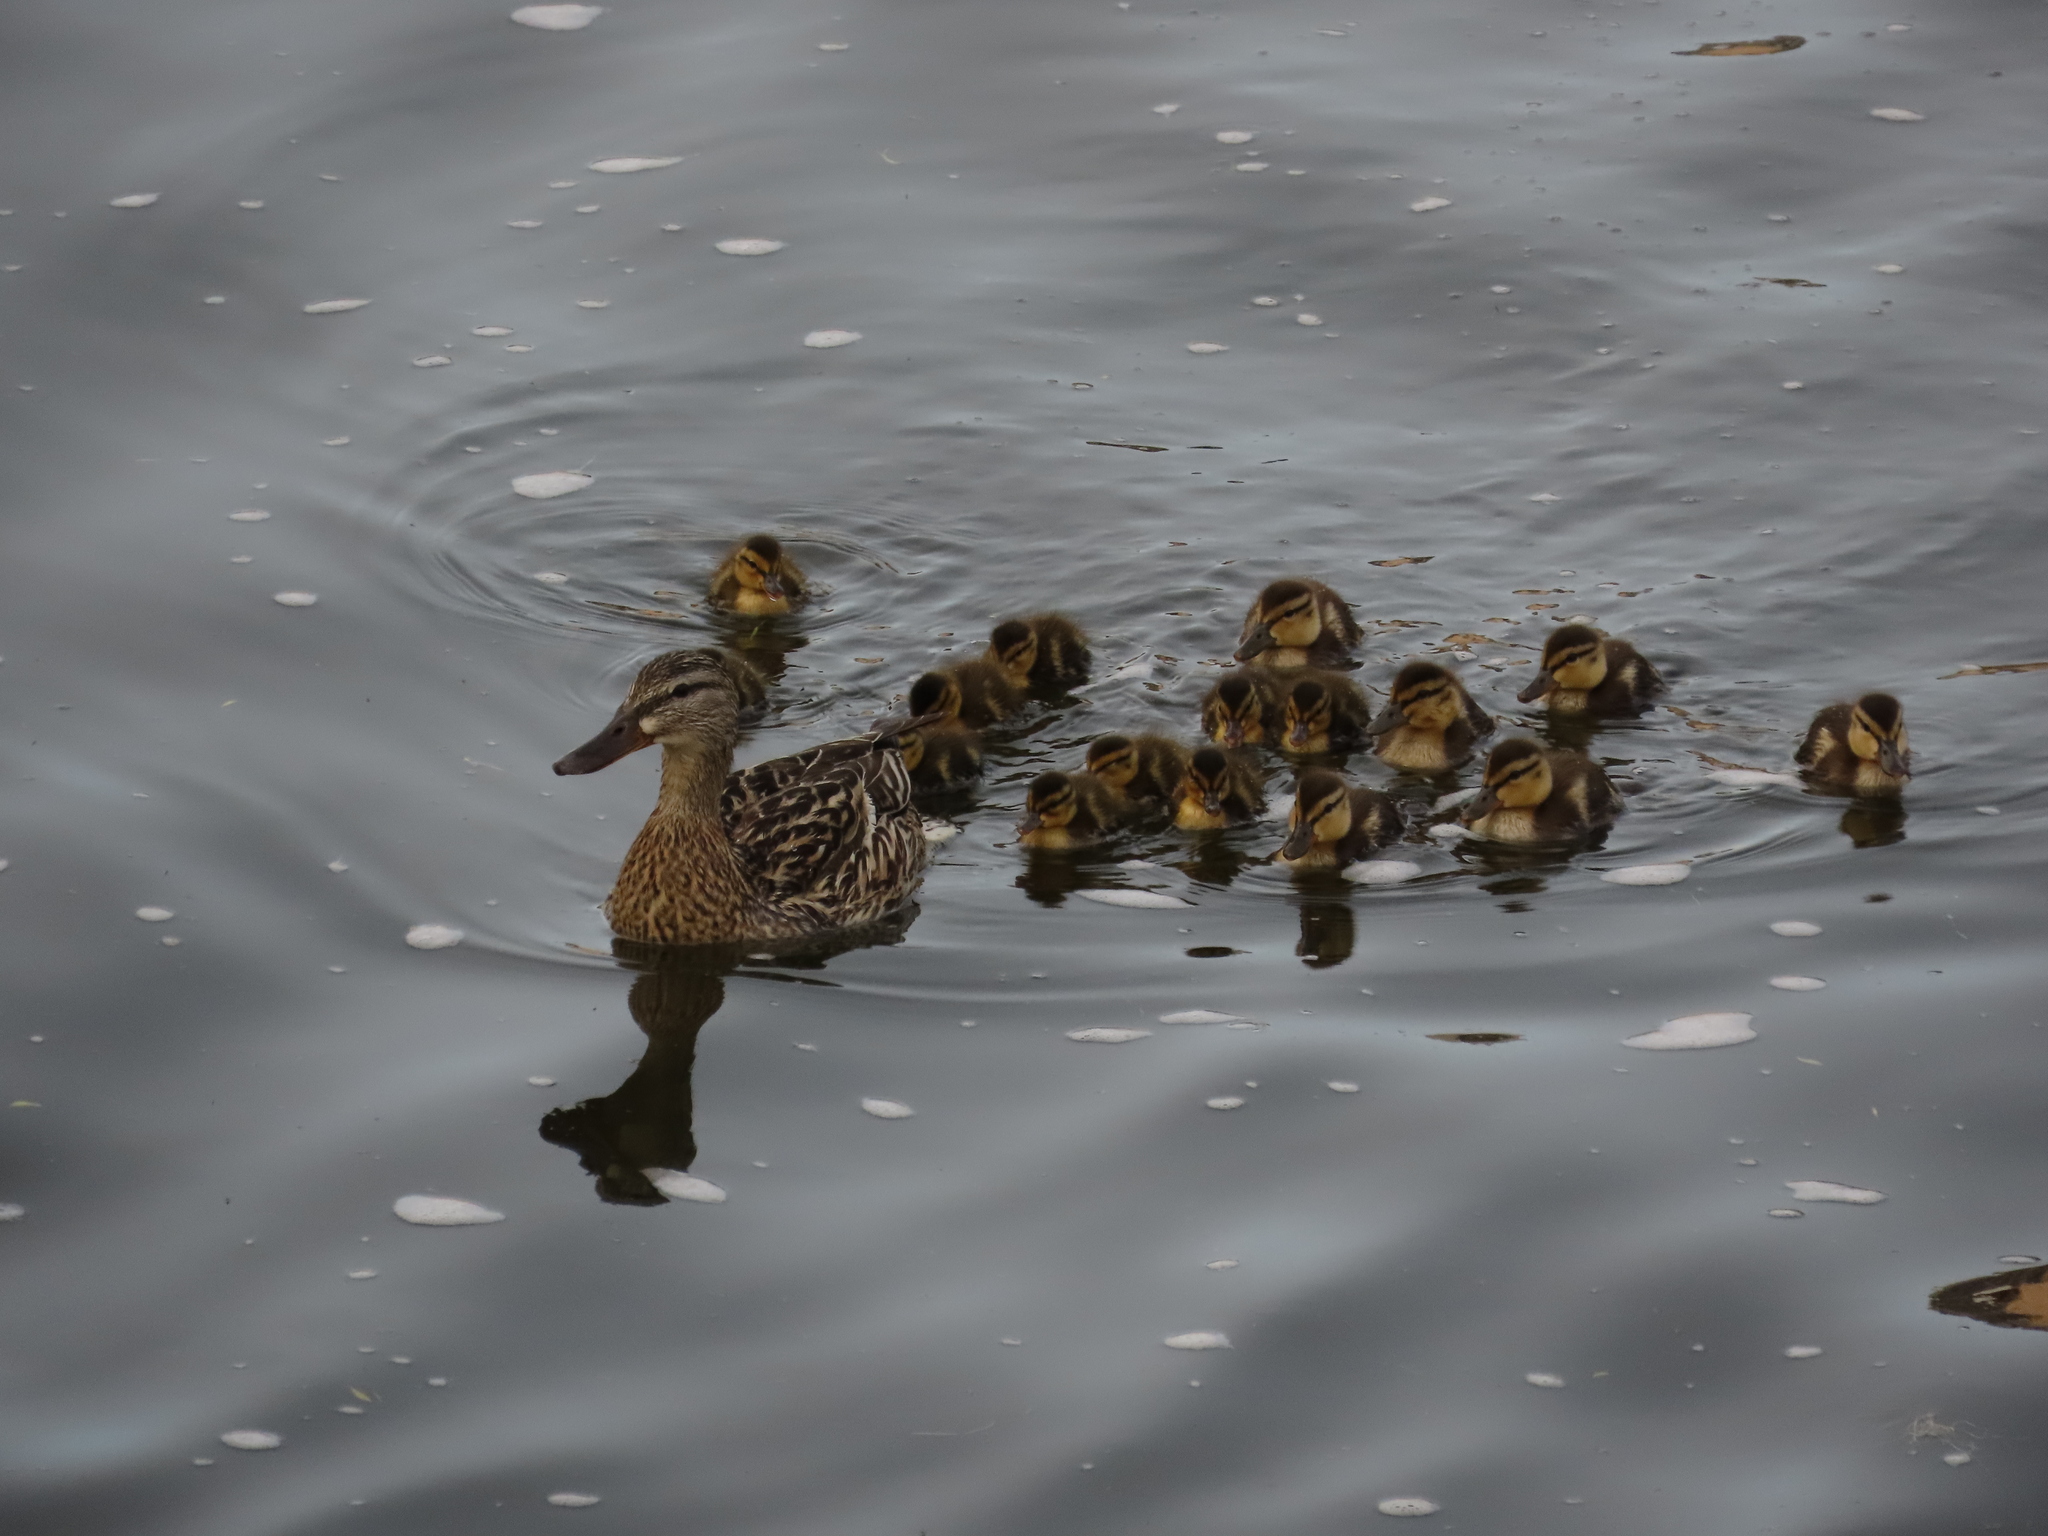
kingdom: Animalia
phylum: Chordata
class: Aves
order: Anseriformes
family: Anatidae
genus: Anas
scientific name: Anas platyrhynchos
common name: Mallard
